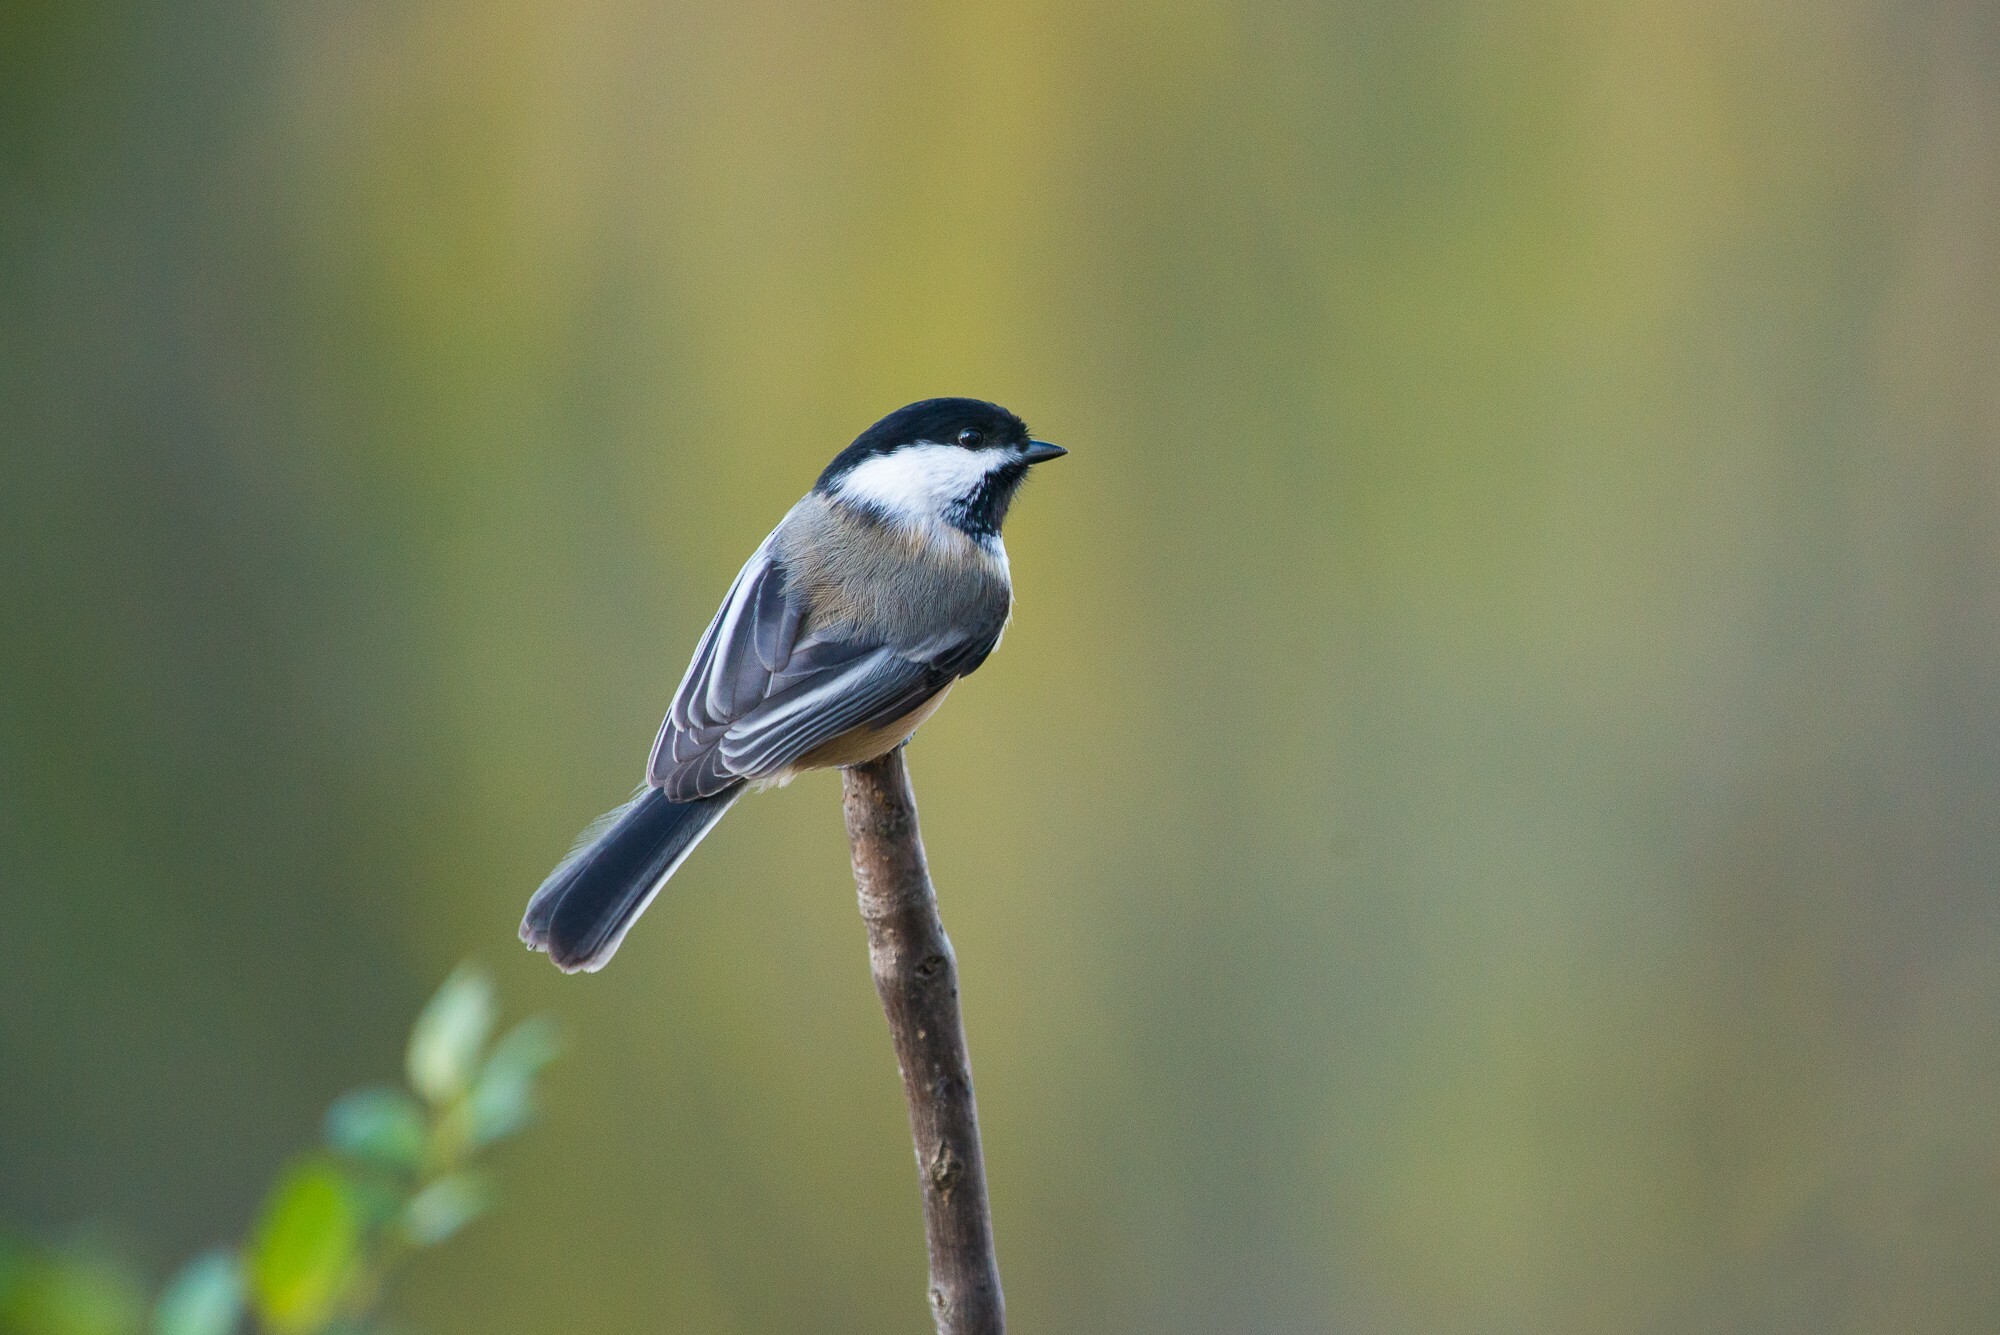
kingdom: Animalia
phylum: Chordata
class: Aves
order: Passeriformes
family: Paridae
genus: Poecile
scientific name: Poecile atricapillus
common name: Black-capped chickadee
